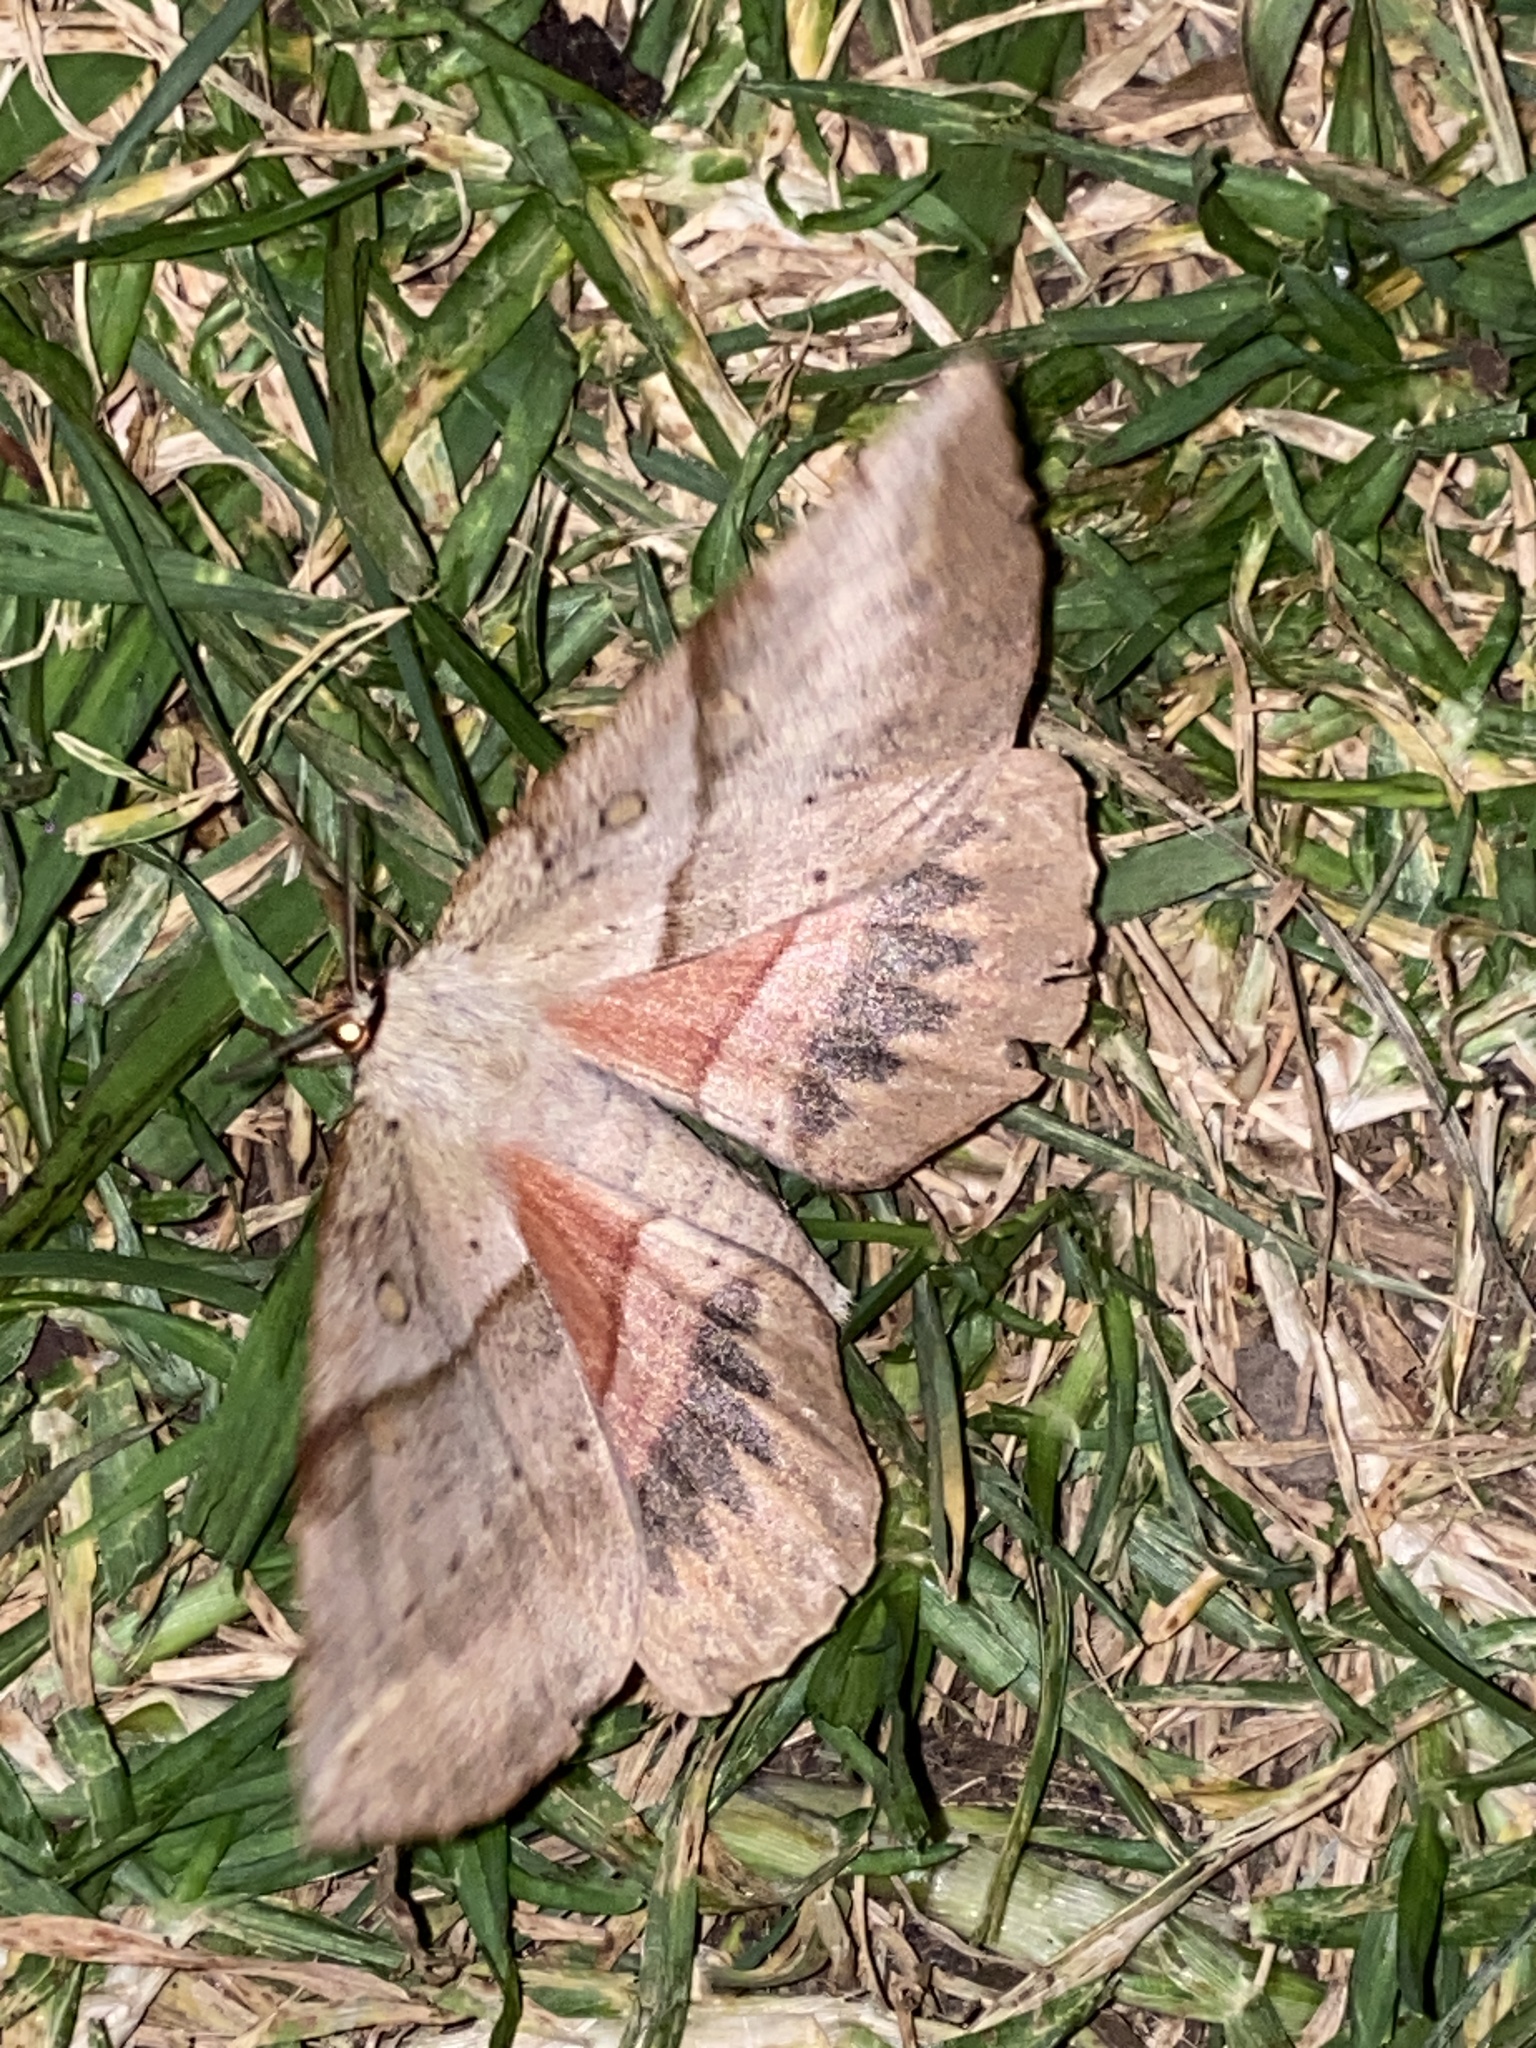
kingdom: Animalia
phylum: Arthropoda
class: Insecta
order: Lepidoptera
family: Anthelidae
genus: Chelepteryx
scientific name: Chelepteryx chalepteryx
